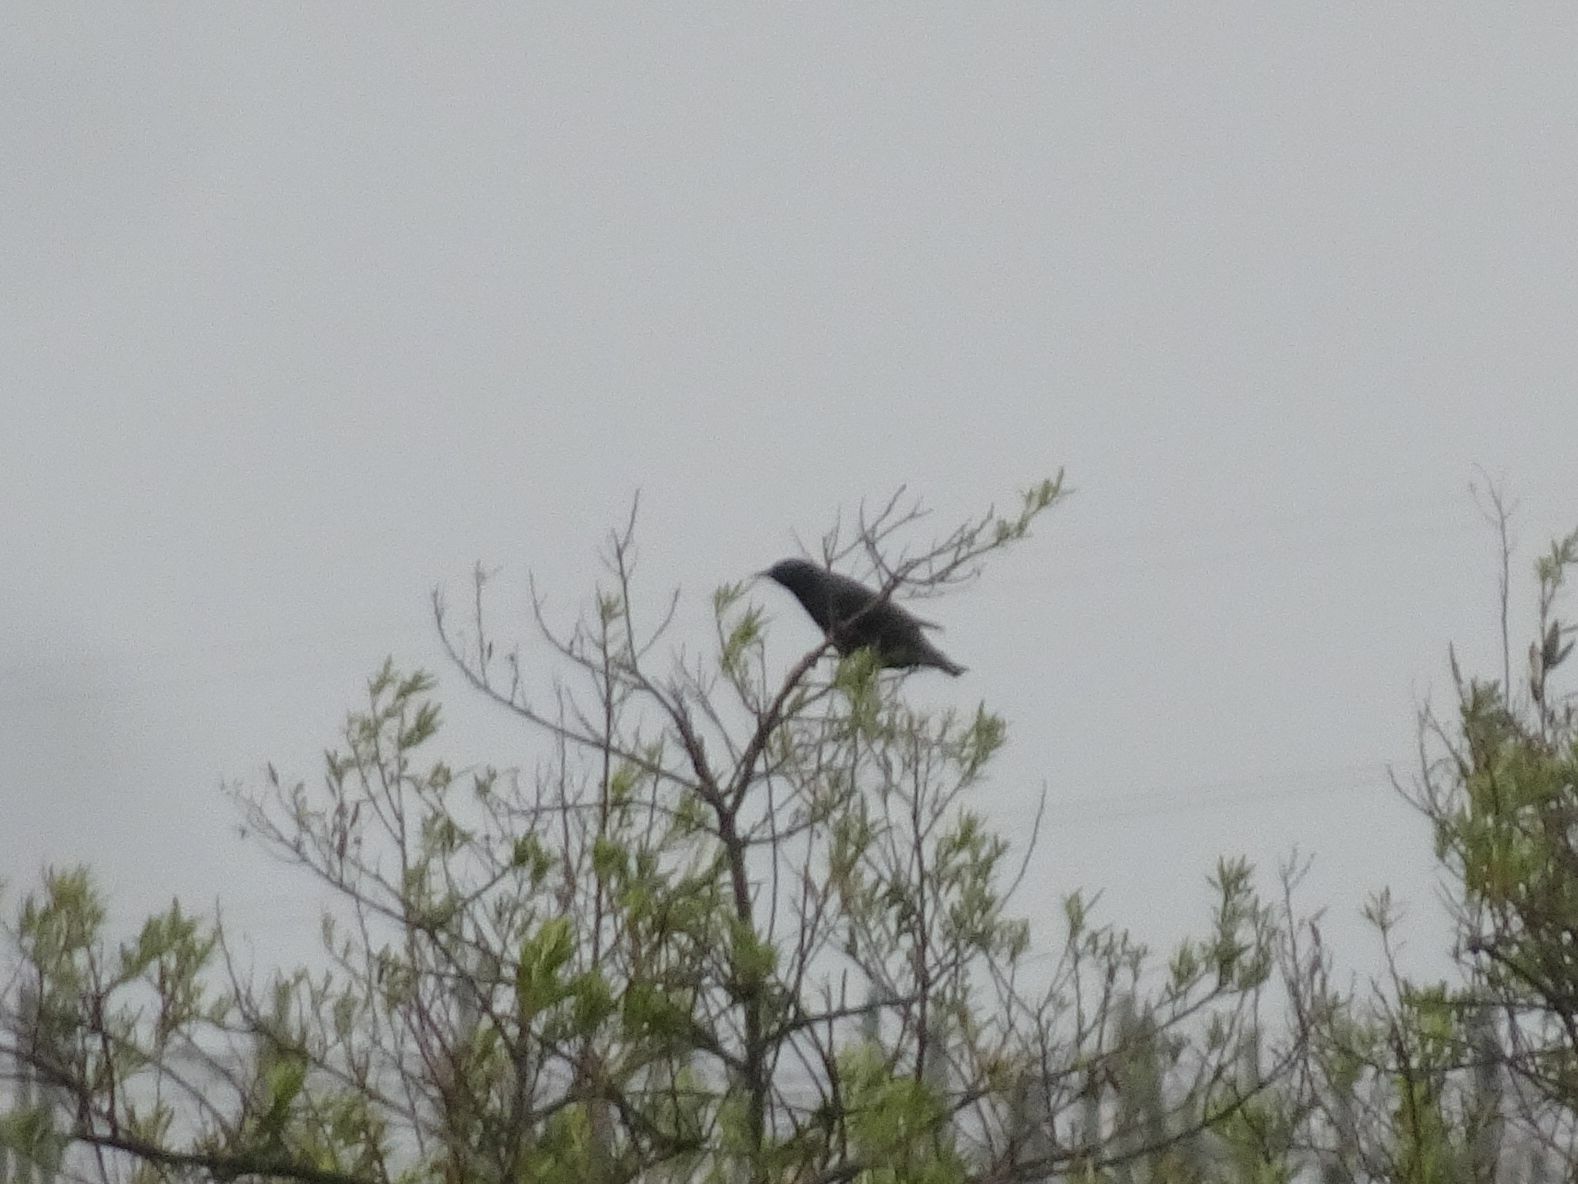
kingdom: Animalia
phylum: Chordata
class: Aves
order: Passeriformes
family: Sturnidae
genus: Sturnus
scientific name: Sturnus vulgaris
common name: Common starling
